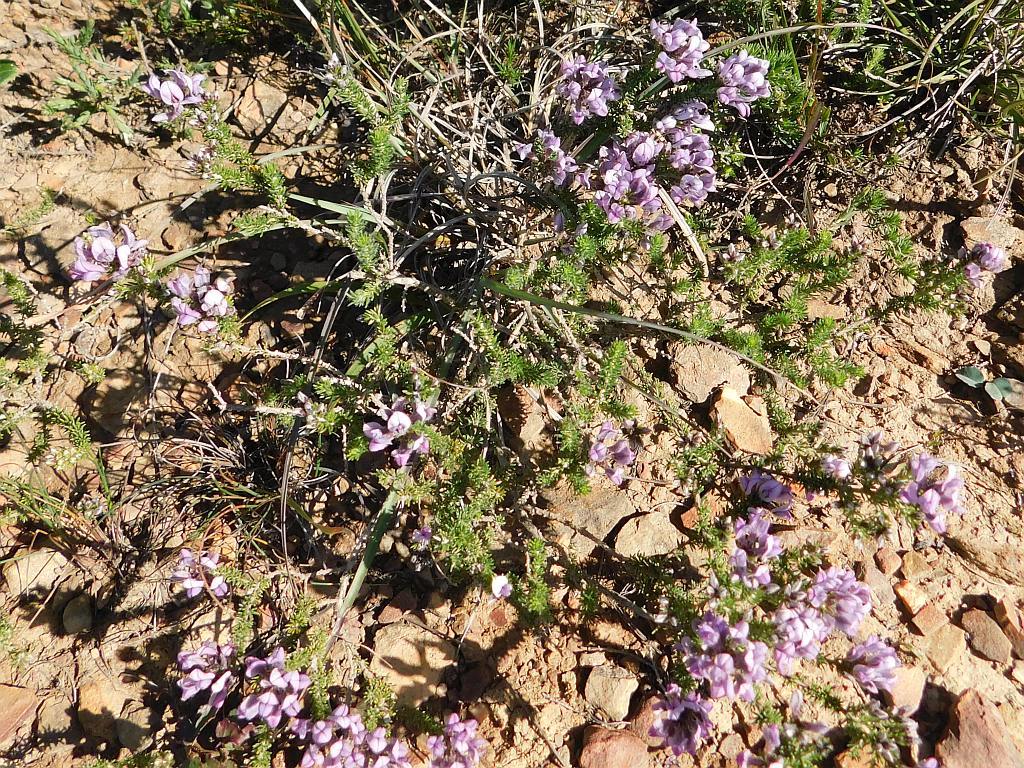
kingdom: Plantae
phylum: Tracheophyta
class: Magnoliopsida
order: Fabales
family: Fabaceae
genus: Aspalathus
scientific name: Aspalathus nigra
